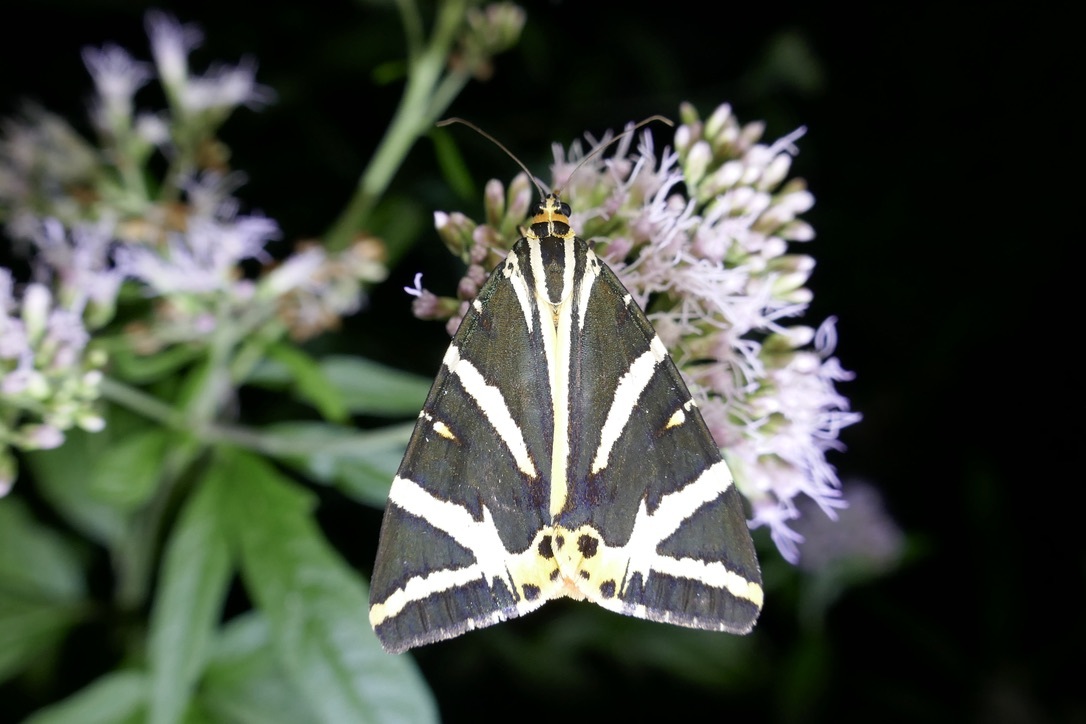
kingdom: Animalia
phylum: Arthropoda
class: Insecta
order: Lepidoptera
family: Erebidae
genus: Euplagia
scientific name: Euplagia quadripunctaria
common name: Jersey tiger
